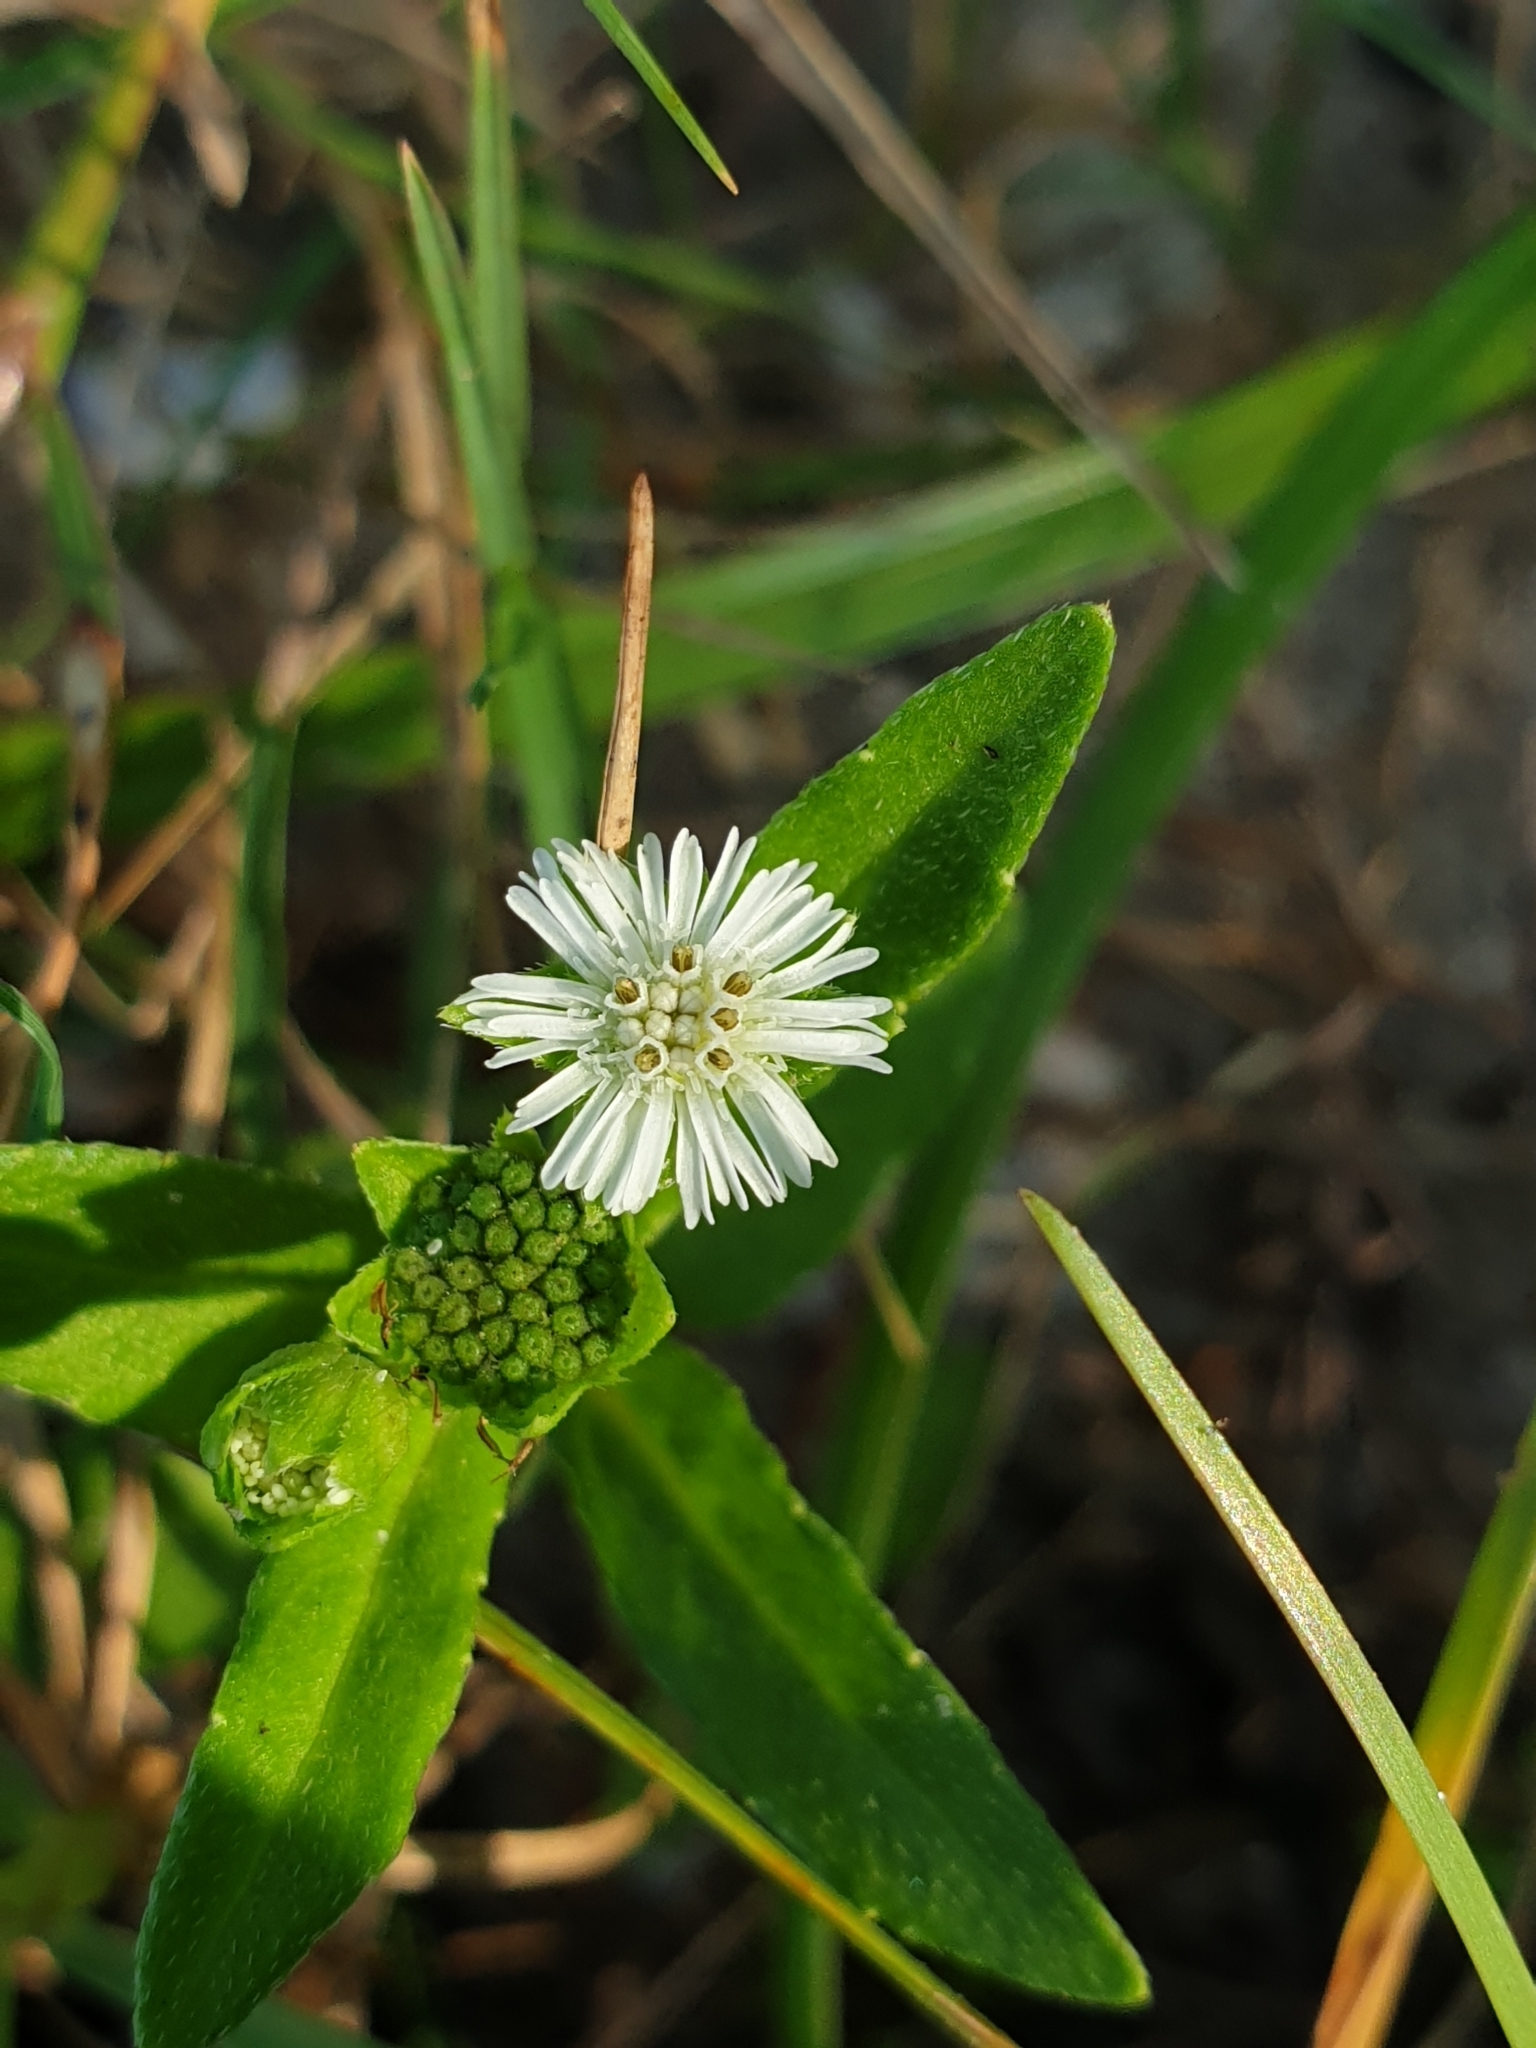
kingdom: Plantae
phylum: Tracheophyta
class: Magnoliopsida
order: Asterales
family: Asteraceae
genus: Eclipta
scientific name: Eclipta prostrata
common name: False daisy
